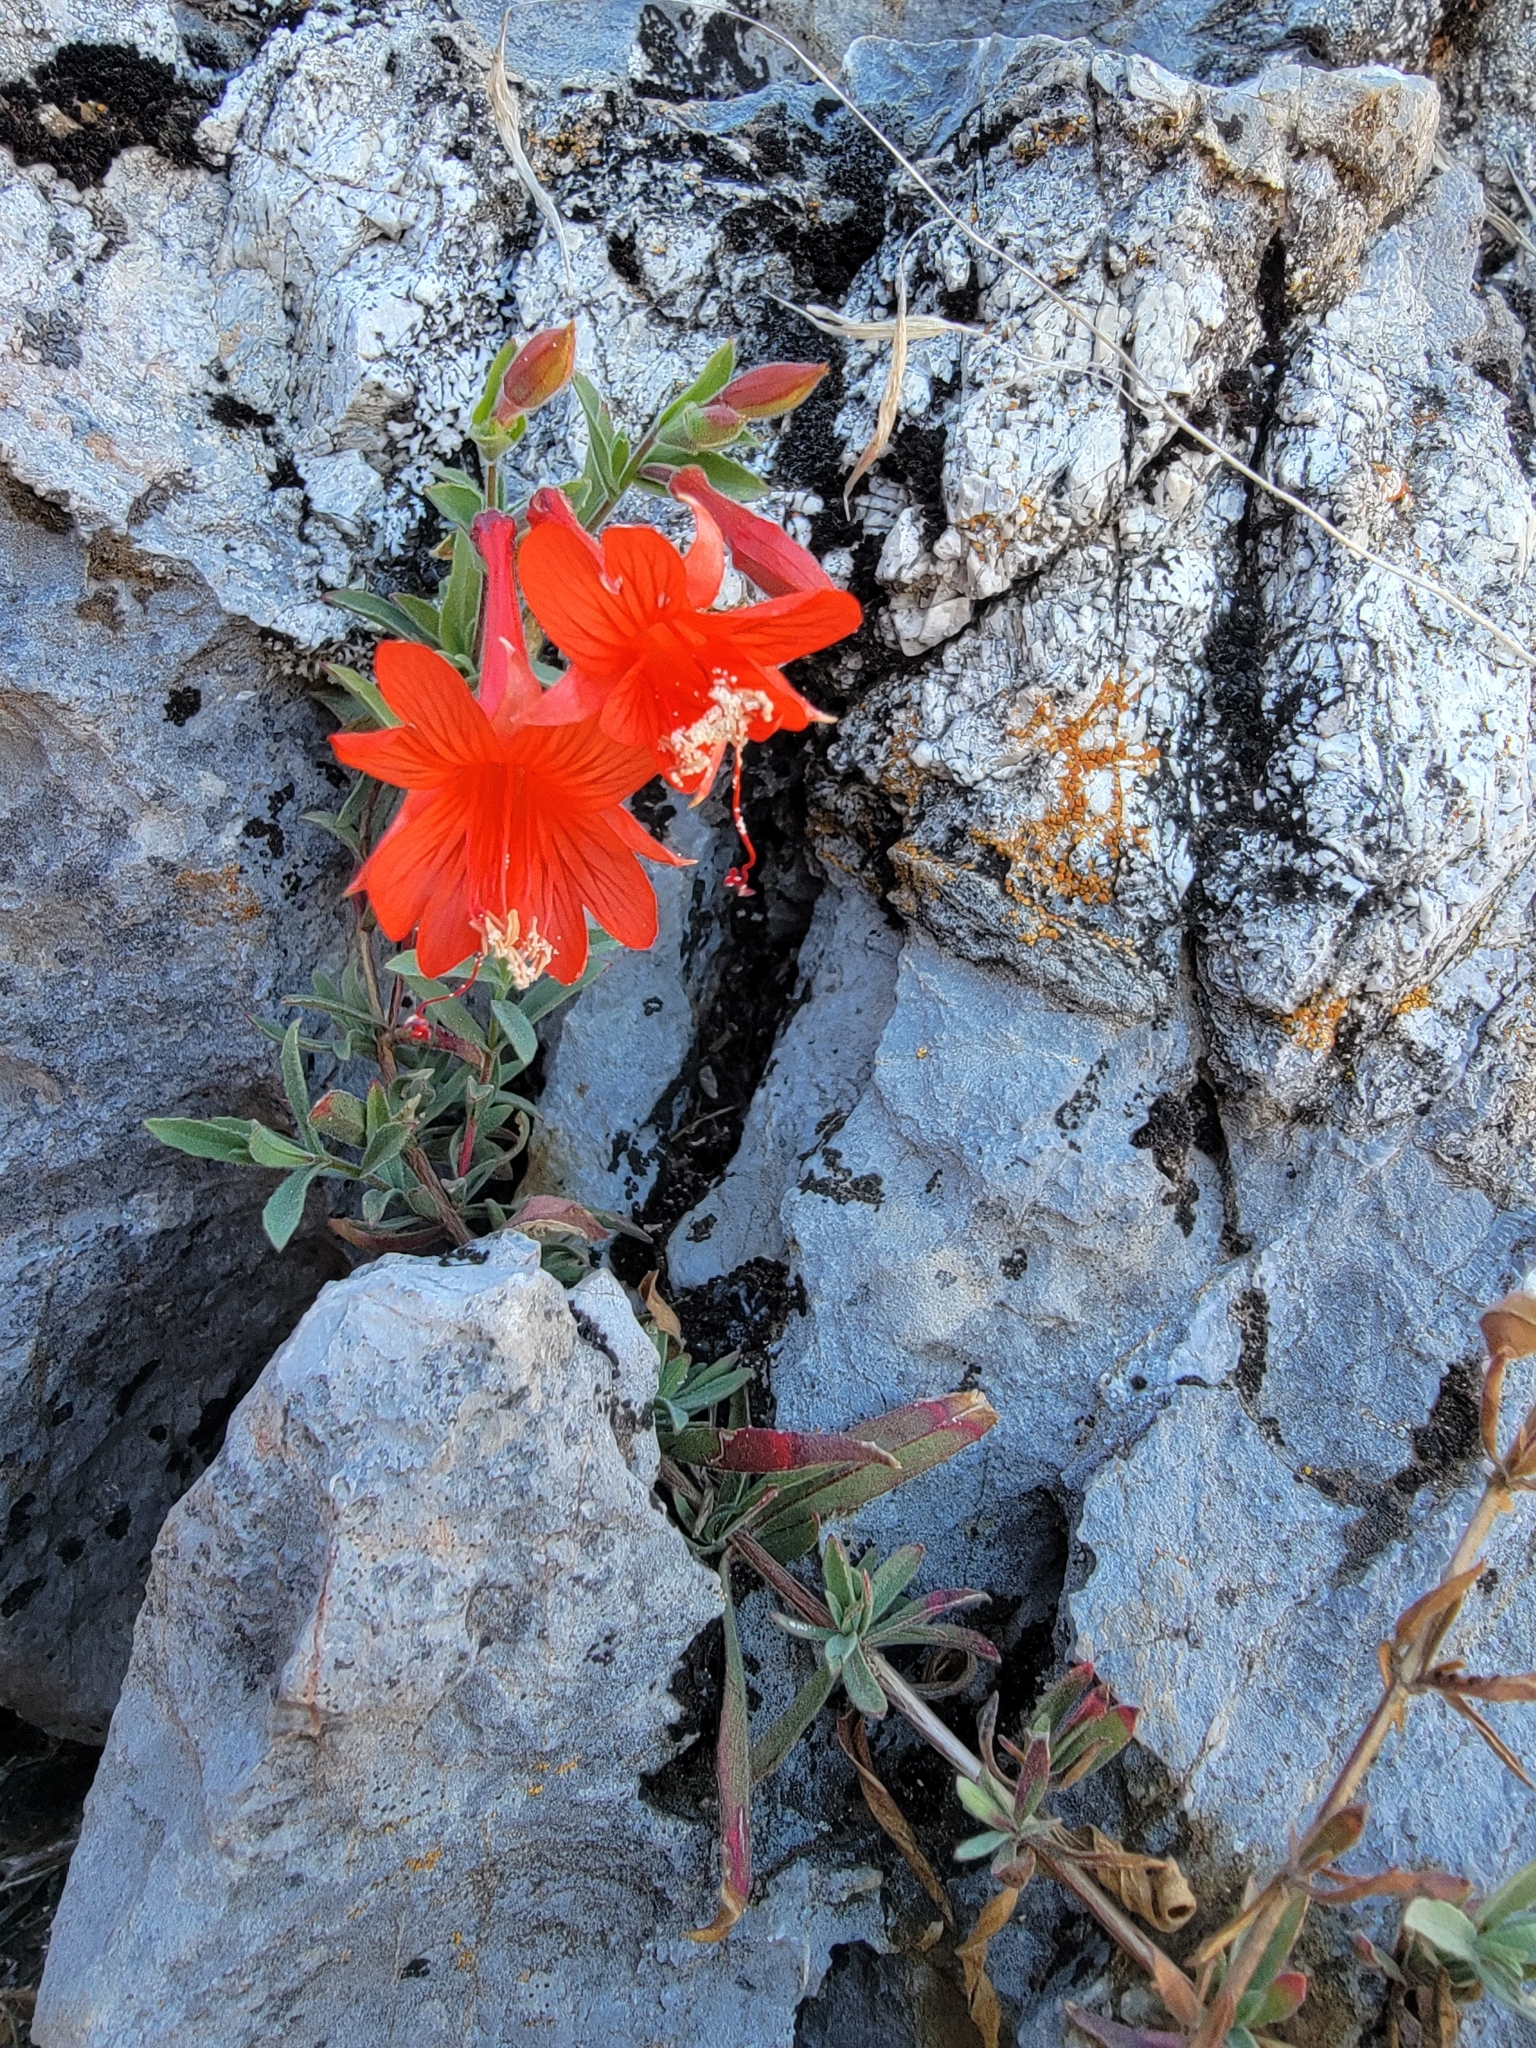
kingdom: Plantae
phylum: Tracheophyta
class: Magnoliopsida
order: Myrtales
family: Onagraceae
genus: Epilobium
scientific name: Epilobium canum
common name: California-fuchsia
